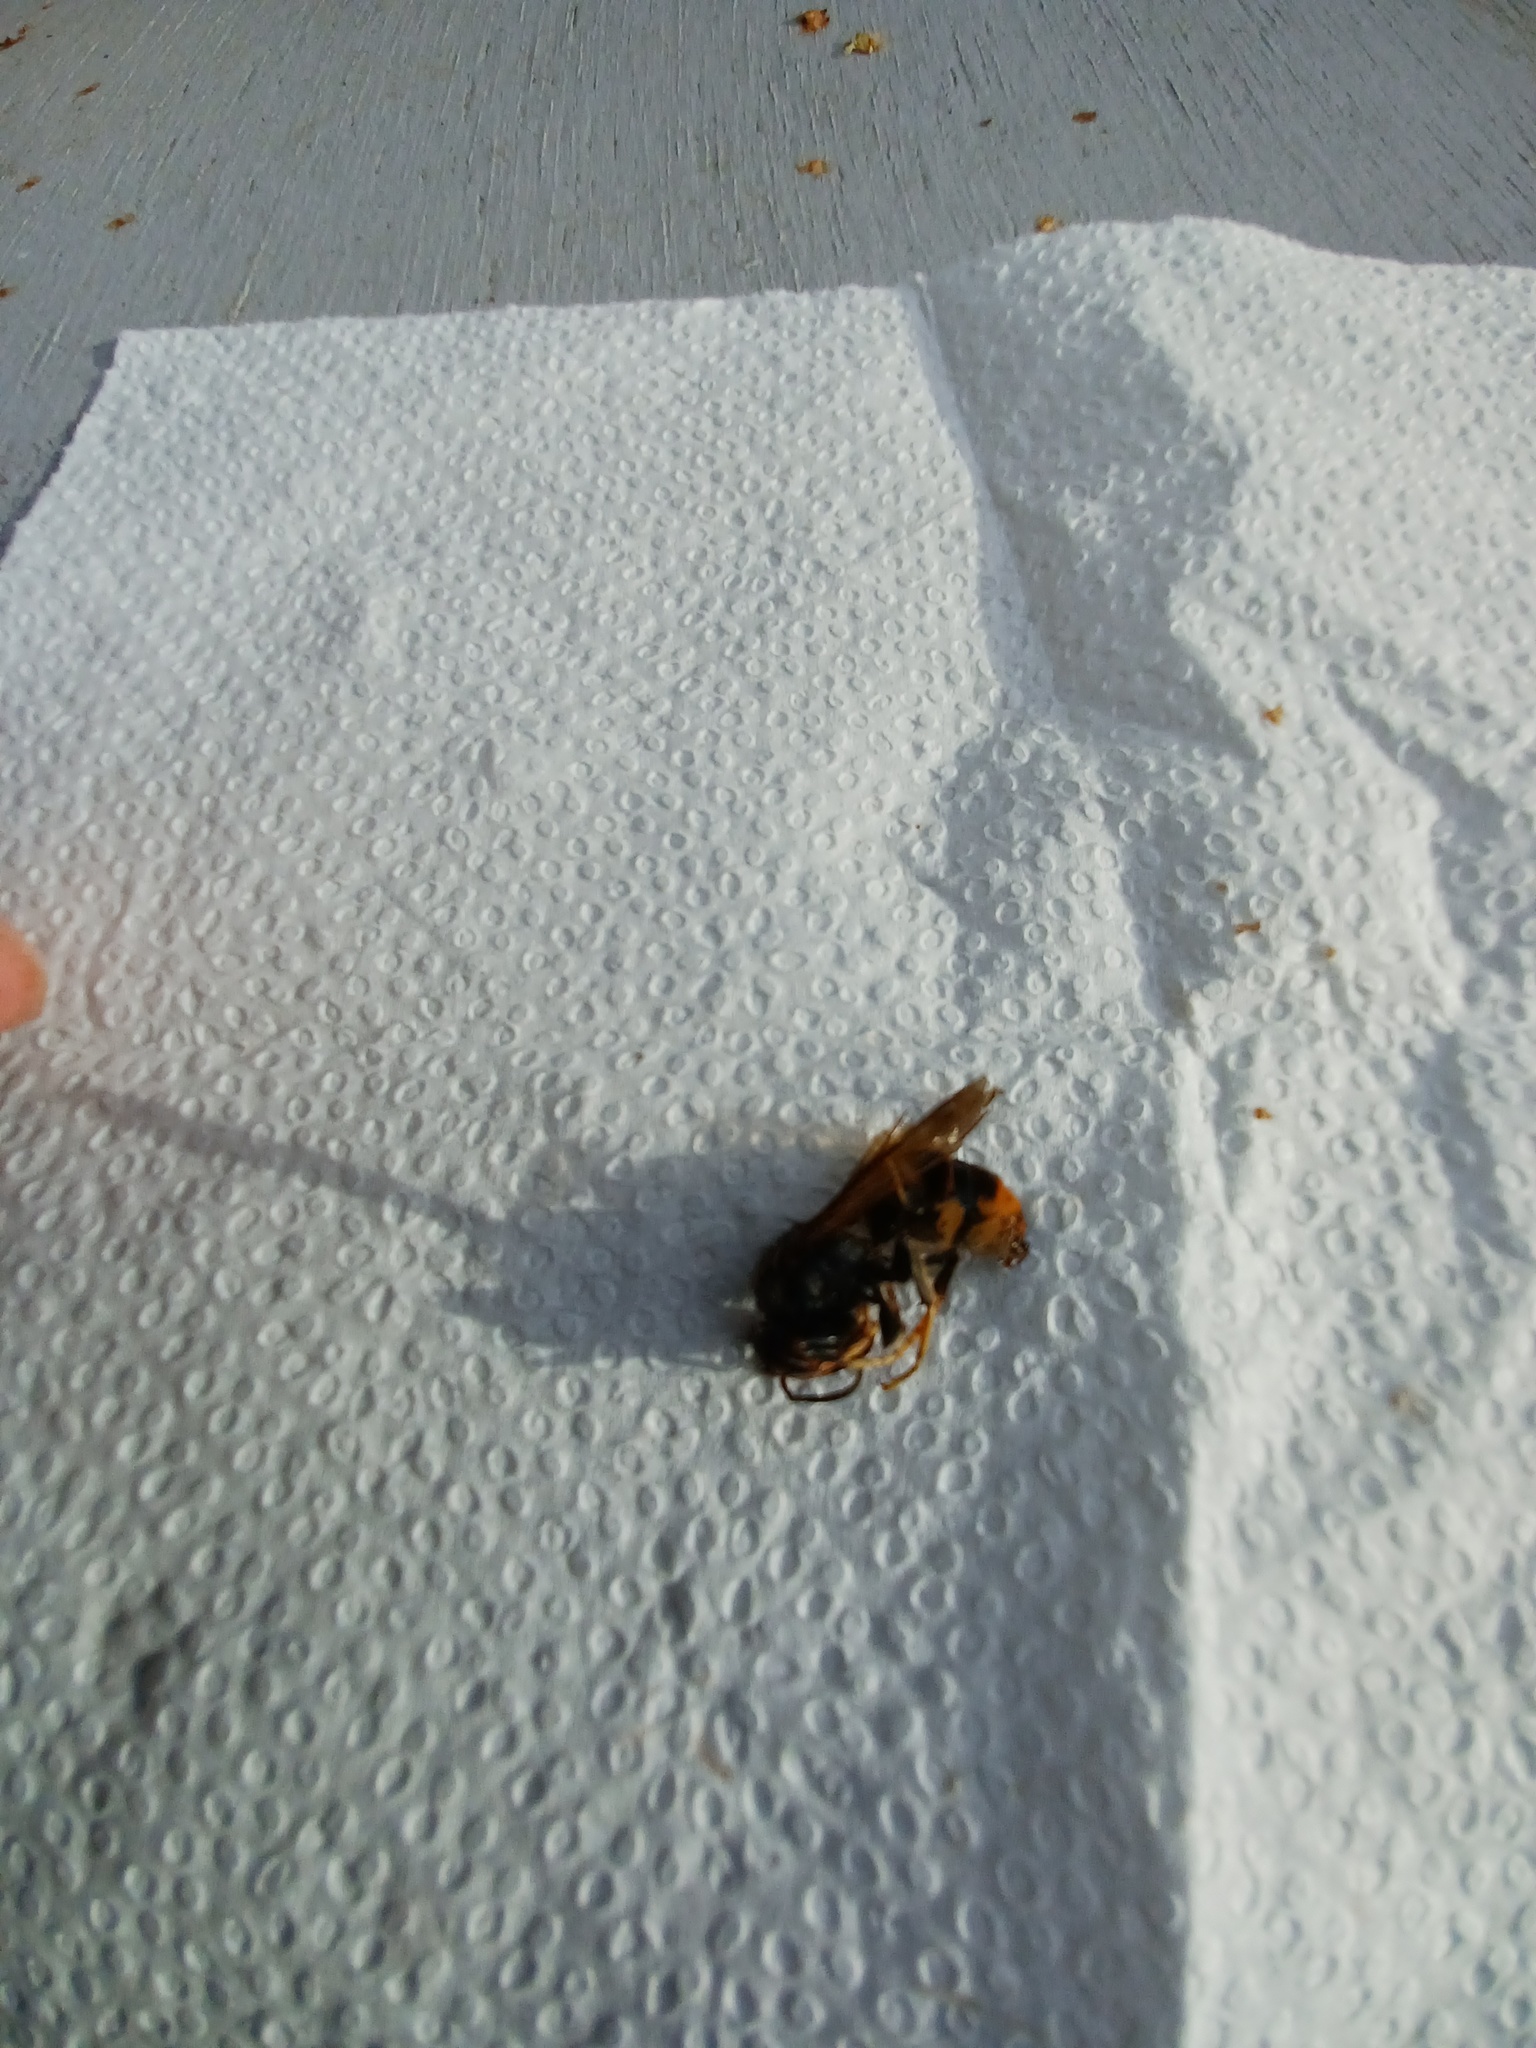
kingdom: Animalia
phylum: Arthropoda
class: Insecta
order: Hymenoptera
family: Vespidae
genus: Vespa
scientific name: Vespa velutina
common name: Asian hornet
